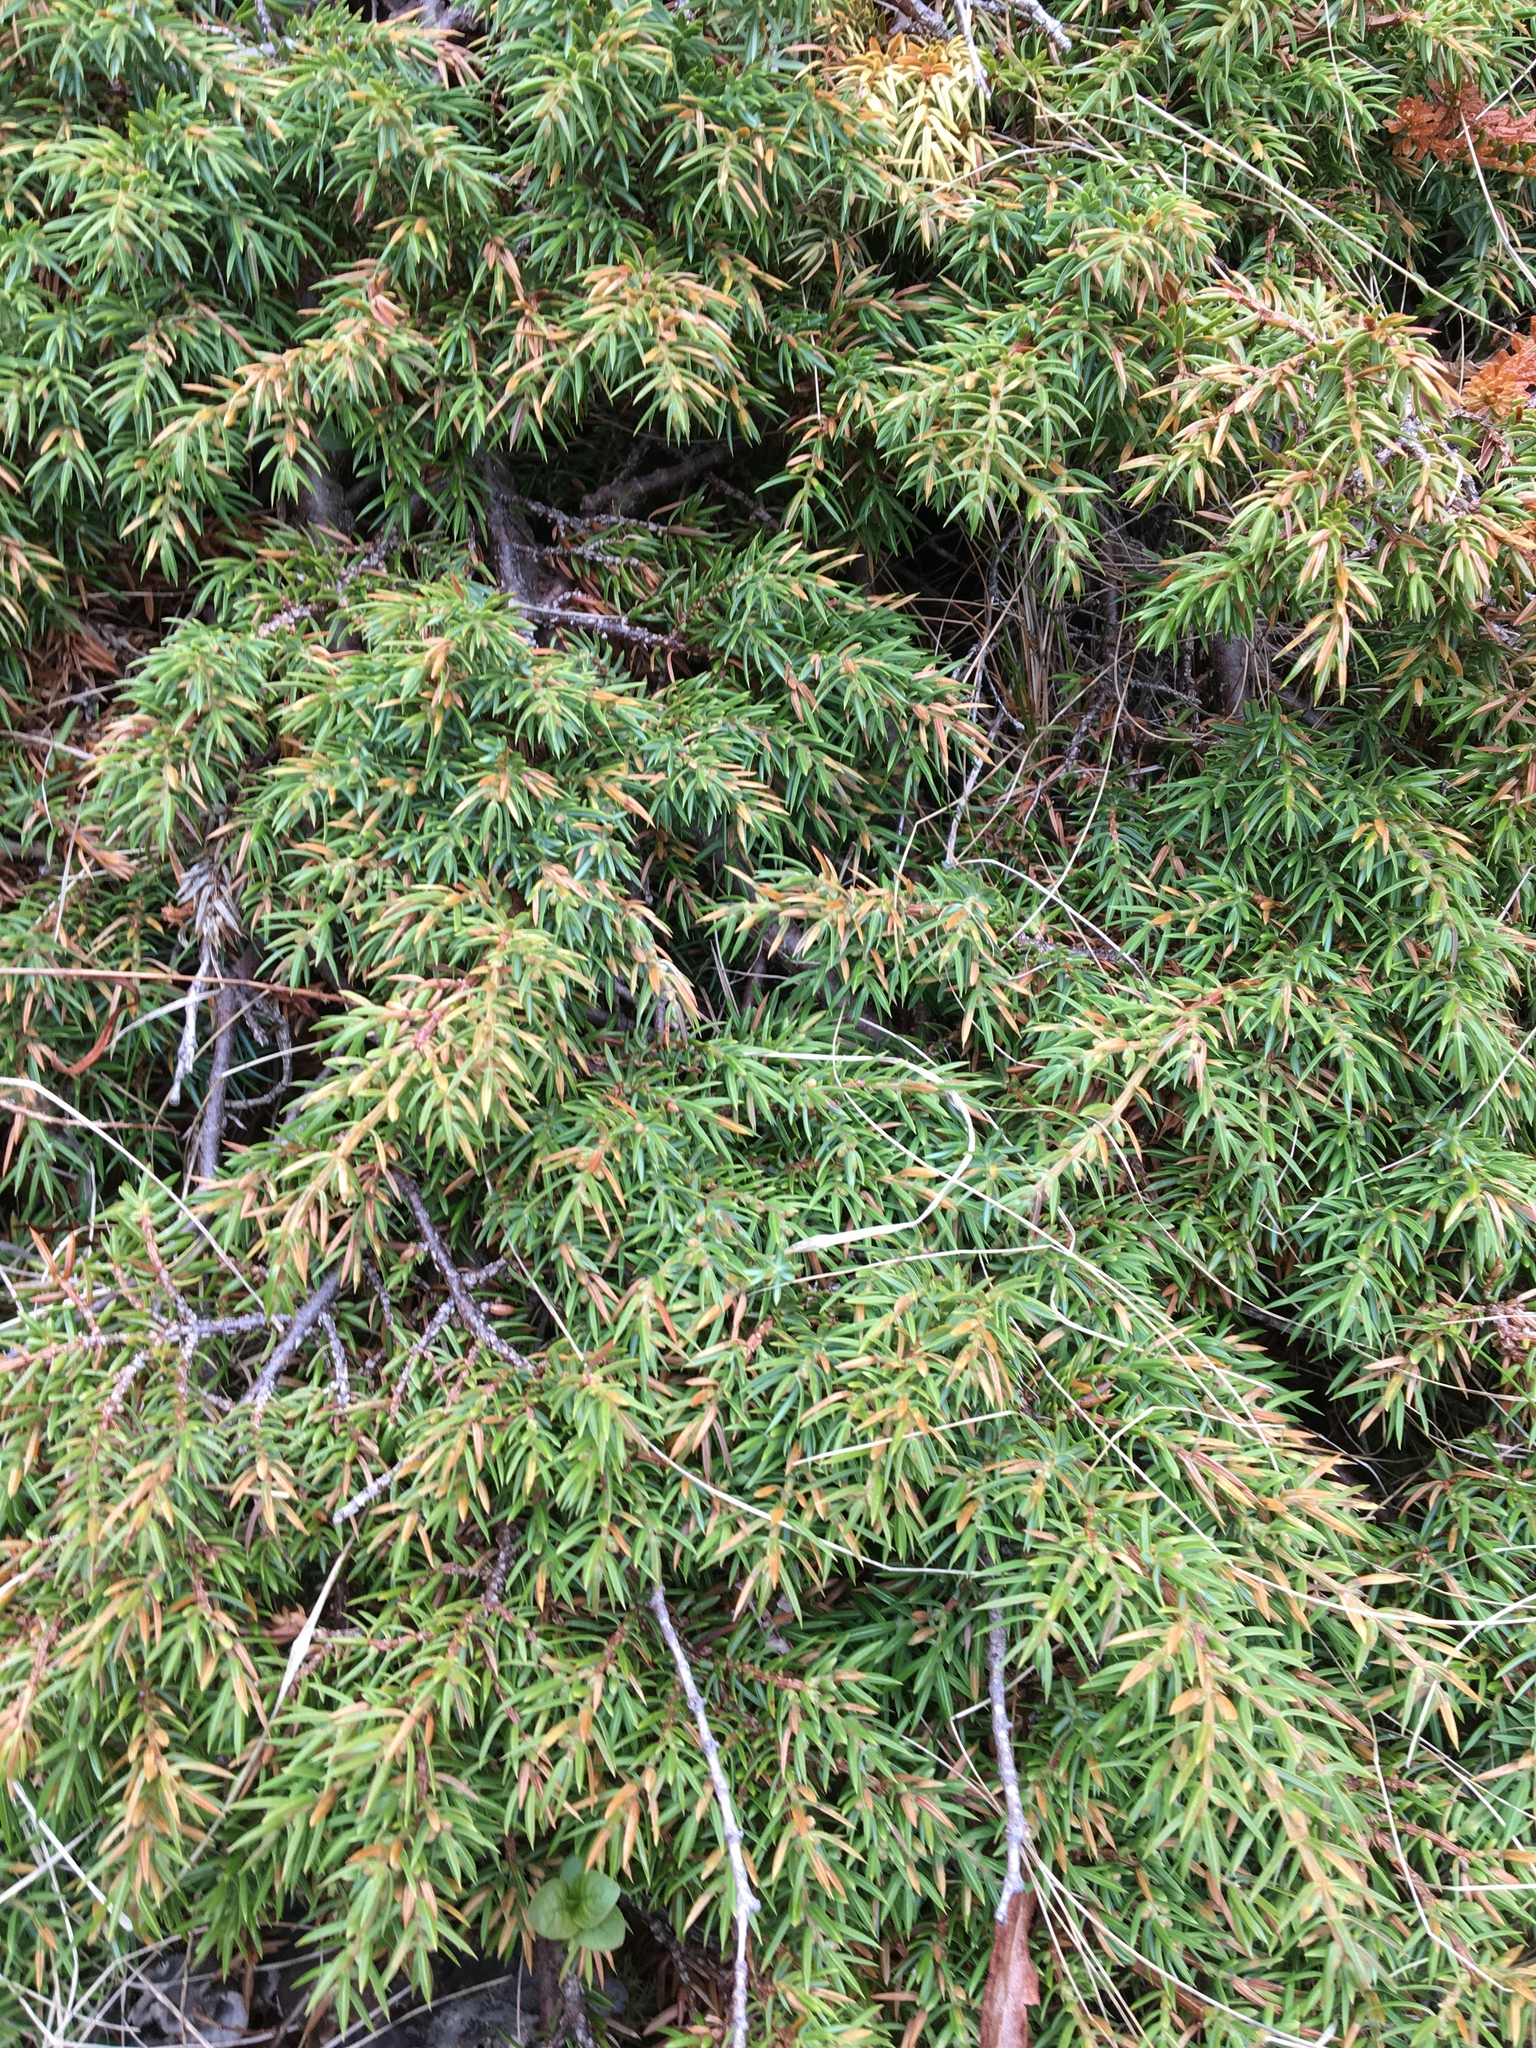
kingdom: Plantae
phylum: Tracheophyta
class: Pinopsida
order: Pinales
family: Cupressaceae
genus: Juniperus
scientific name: Juniperus communis
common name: Common juniper
